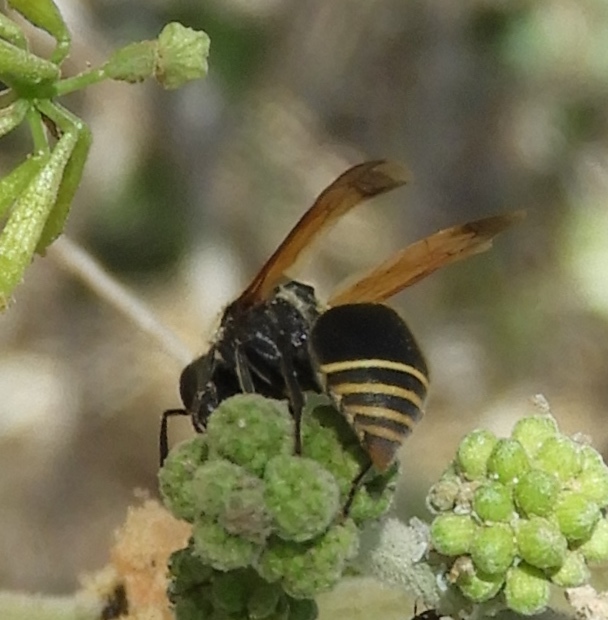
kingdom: Animalia
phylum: Arthropoda
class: Insecta
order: Hymenoptera
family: Vespidae
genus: Brachygastra
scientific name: Brachygastra mellifica
